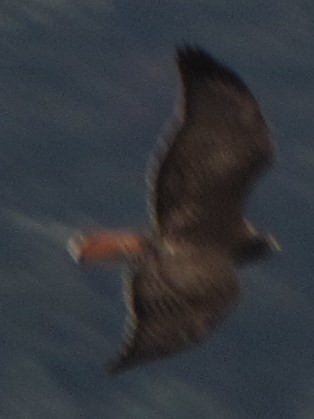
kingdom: Animalia
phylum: Chordata
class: Aves
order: Accipitriformes
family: Accipitridae
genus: Buteo
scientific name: Buteo jamaicensis
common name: Red-tailed hawk
